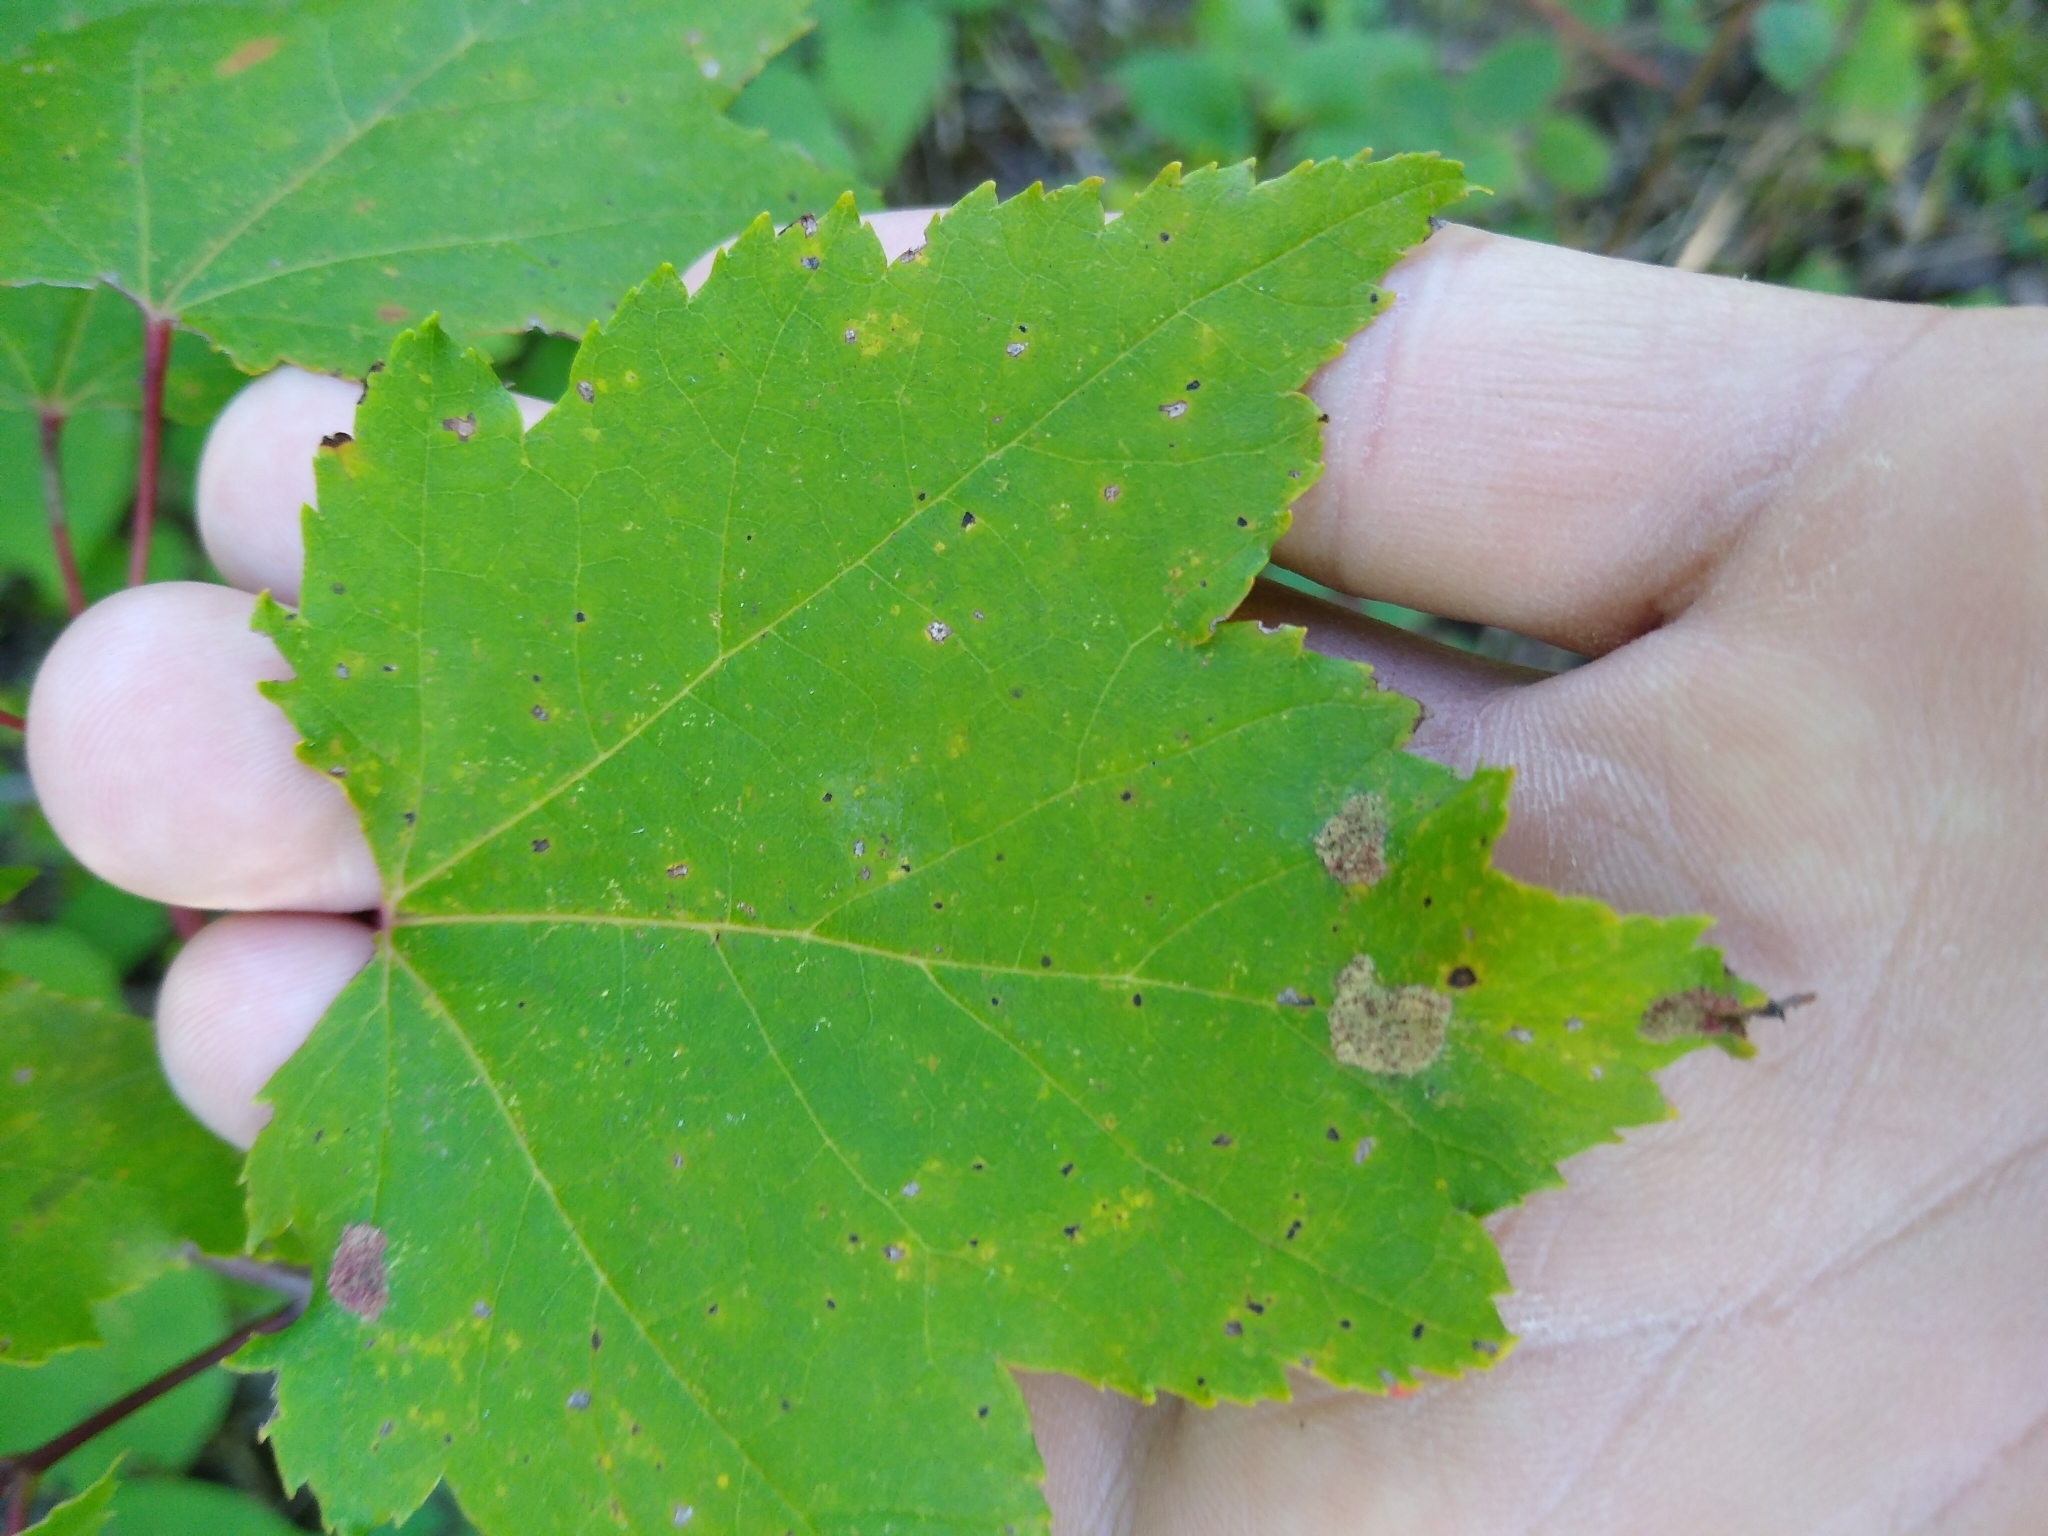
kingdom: Plantae
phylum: Tracheophyta
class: Magnoliopsida
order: Sapindales
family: Sapindaceae
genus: Acer
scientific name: Acer rubrum
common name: Red maple
